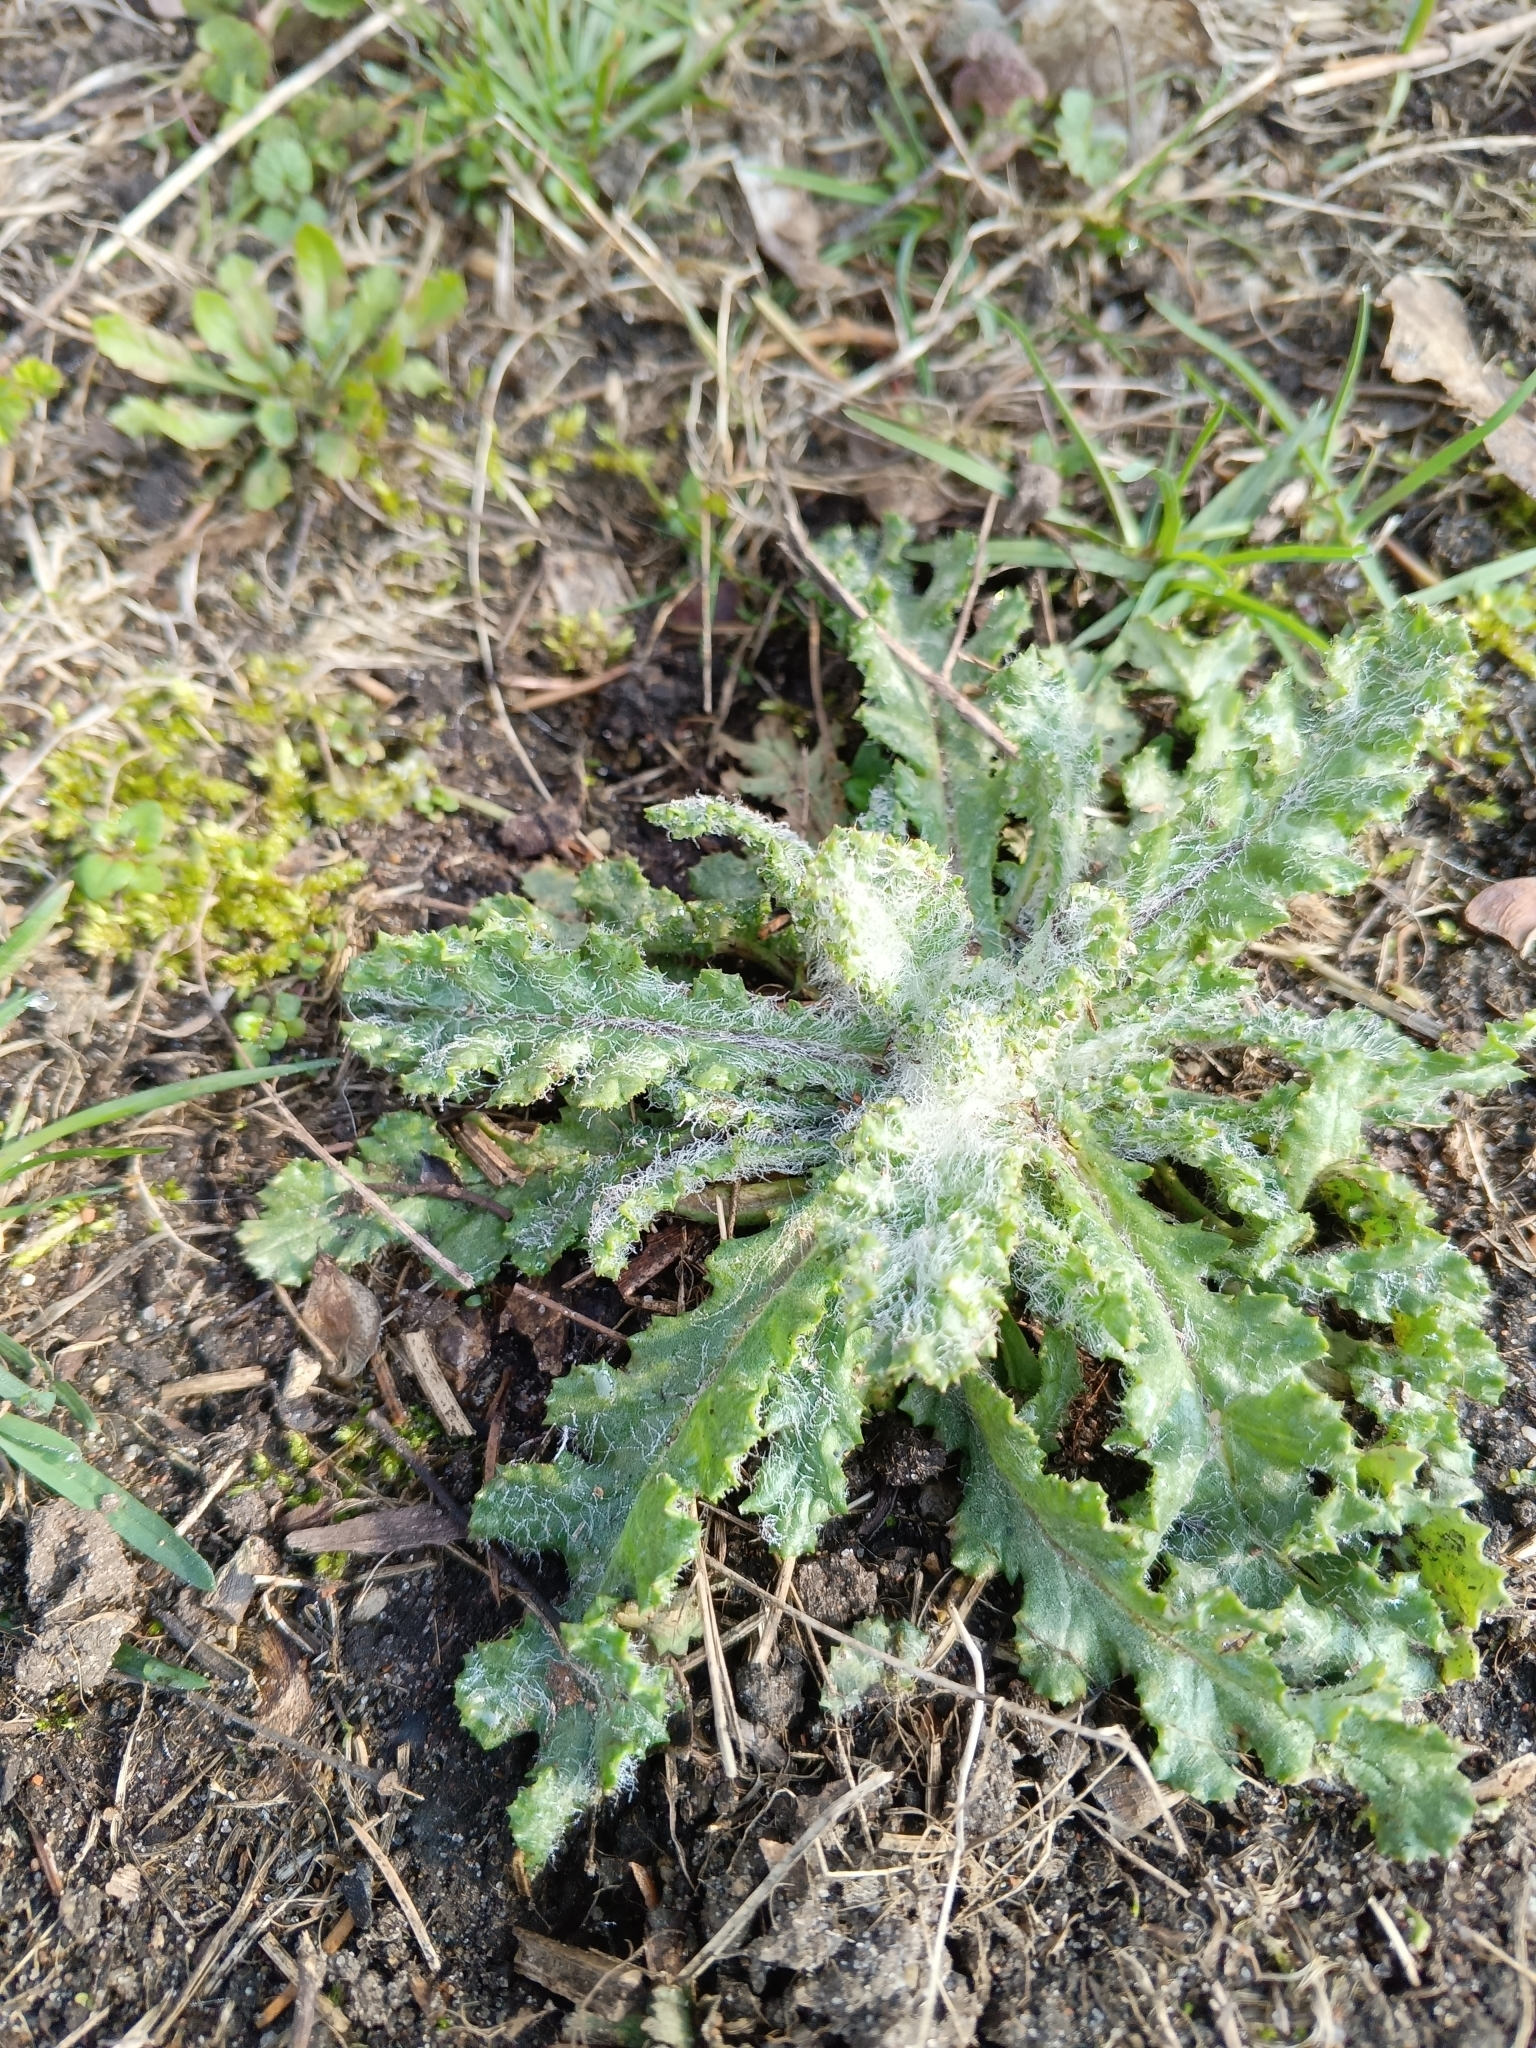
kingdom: Plantae
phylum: Tracheophyta
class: Magnoliopsida
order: Asterales
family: Asteraceae
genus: Senecio
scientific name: Senecio vernalis
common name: Eastern groundsel
